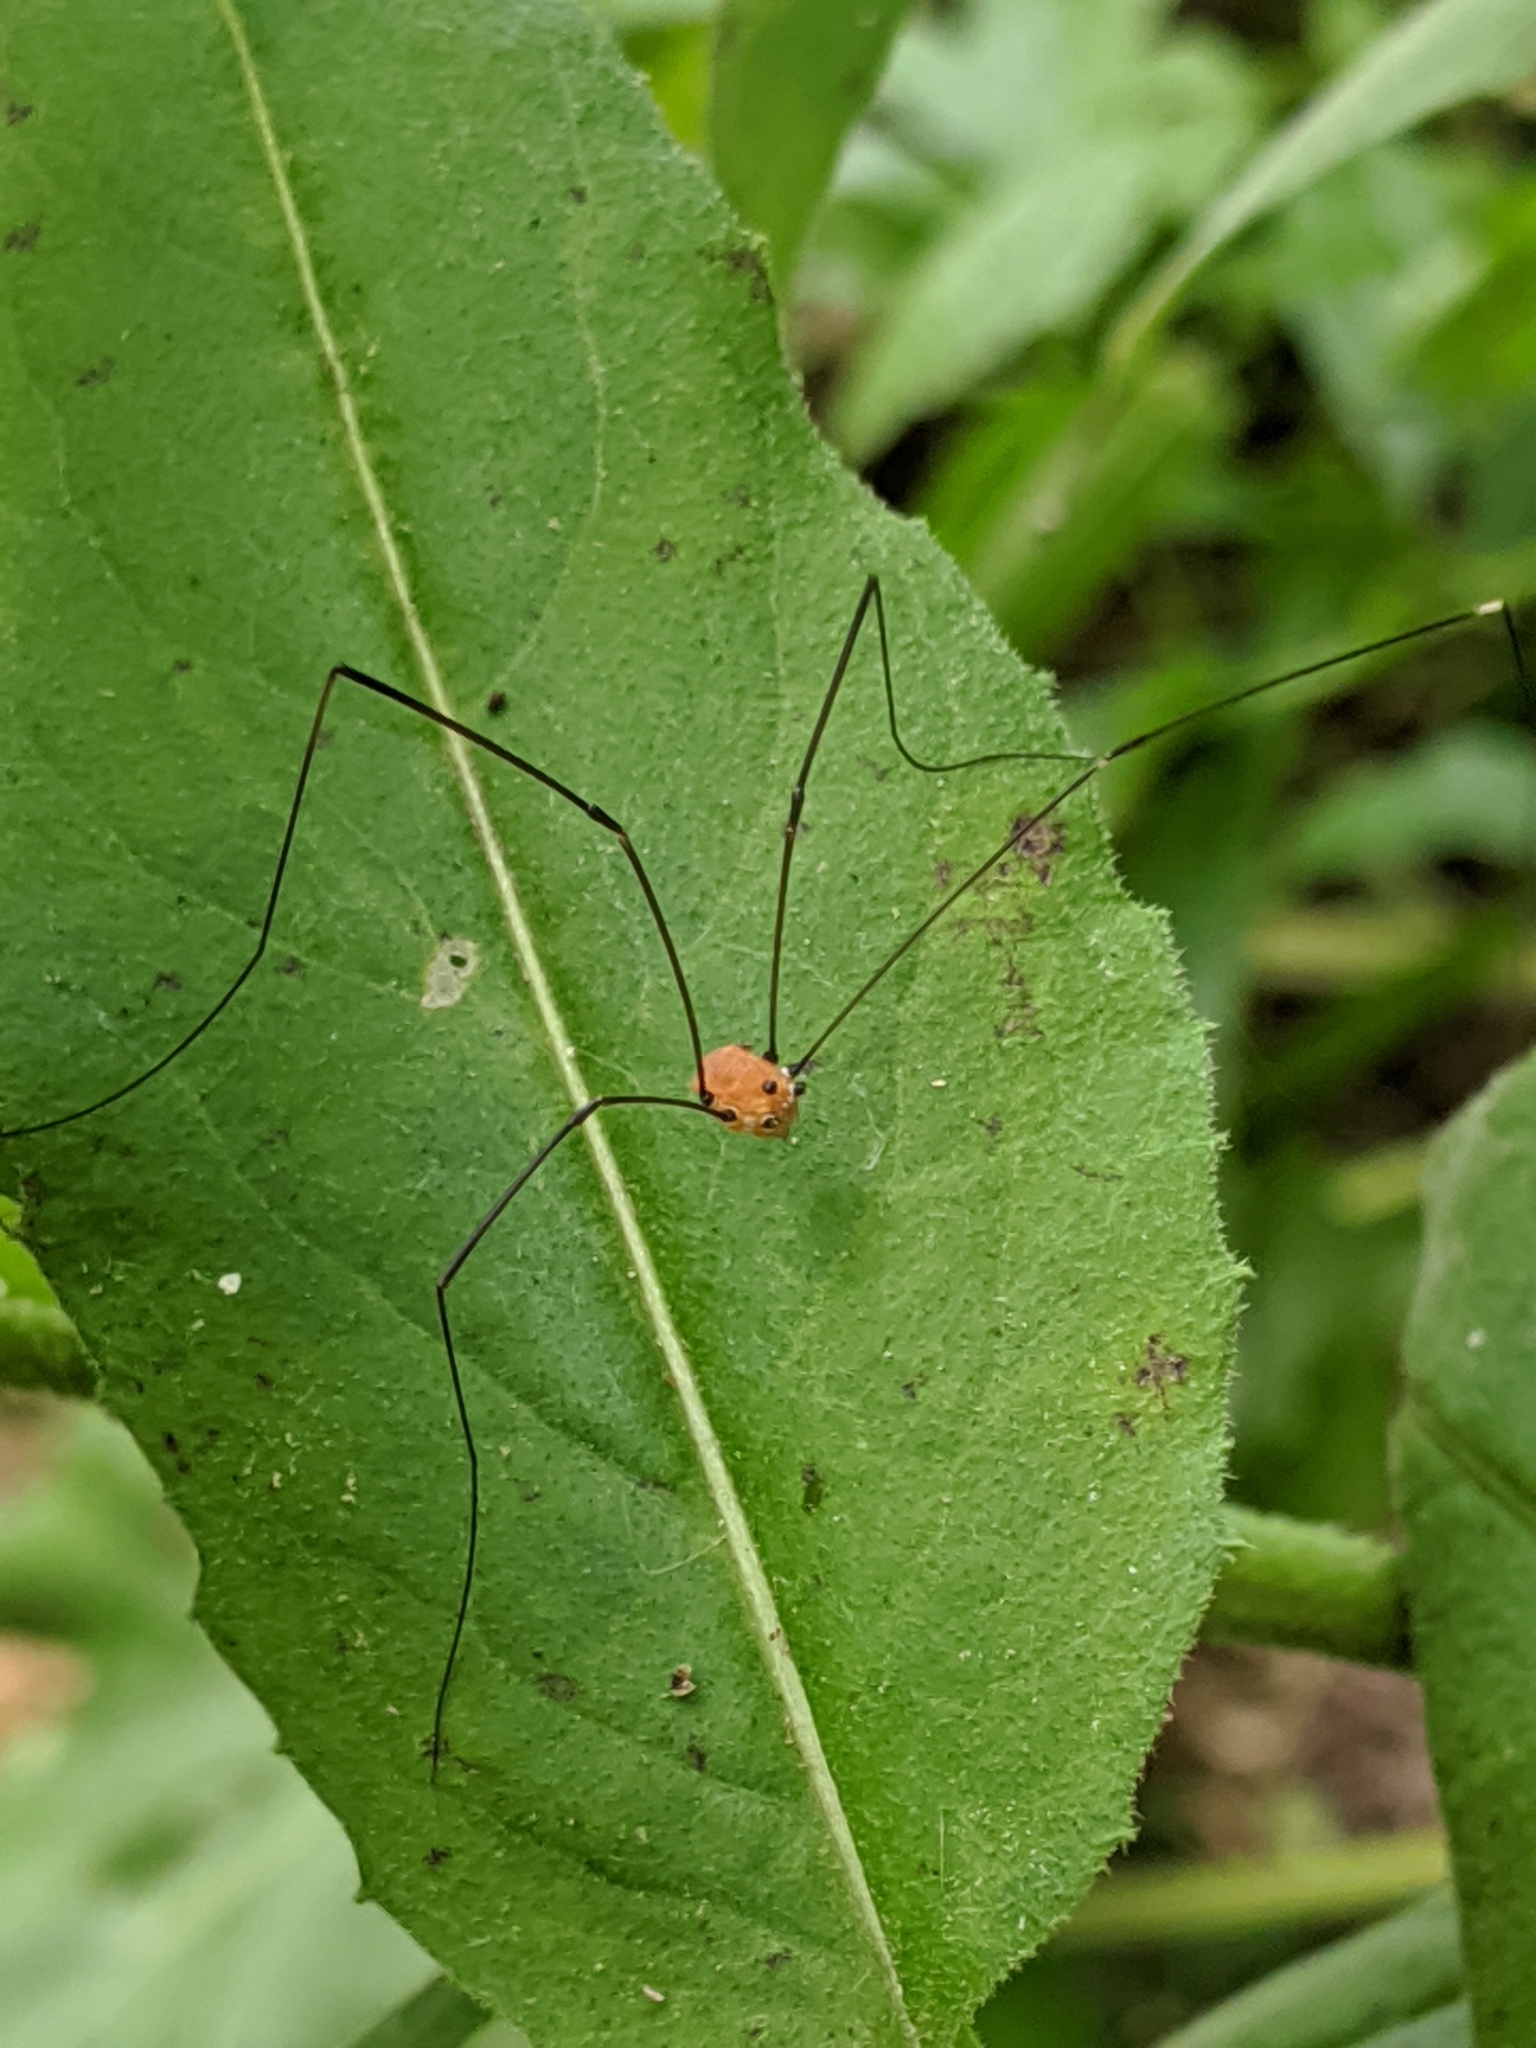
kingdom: Animalia
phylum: Arthropoda
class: Arachnida
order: Opiliones
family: Sclerosomatidae
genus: Leiobunum
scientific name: Leiobunum aldrichi
